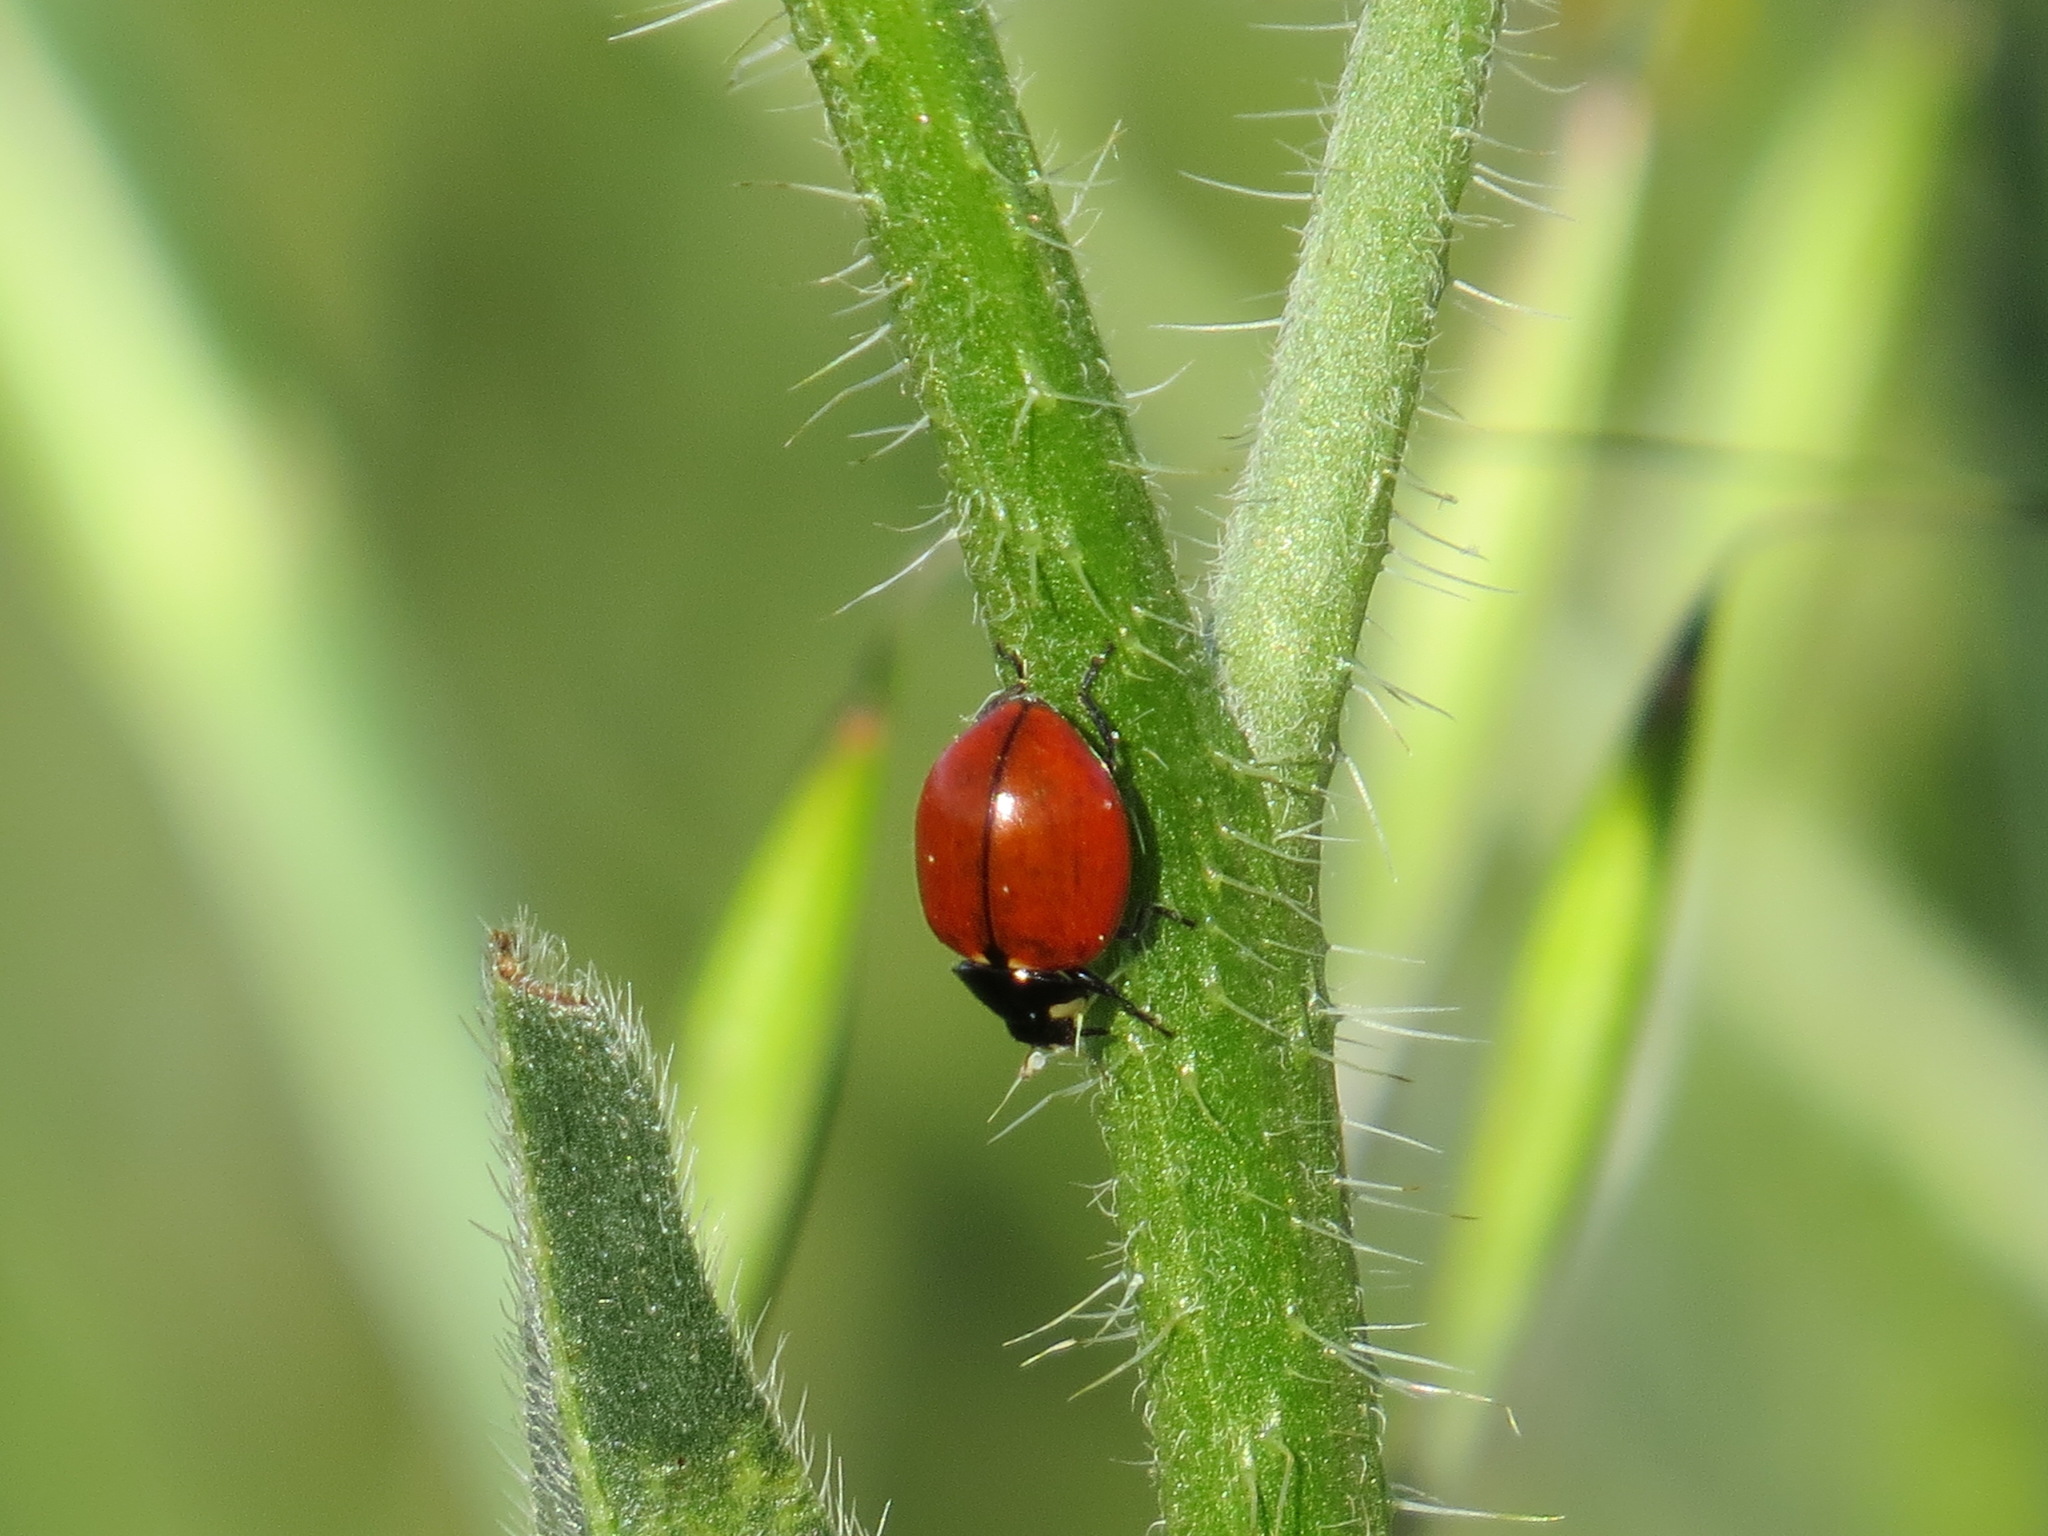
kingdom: Animalia
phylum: Arthropoda
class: Insecta
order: Coleoptera
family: Coccinellidae
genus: Coccinella
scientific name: Coccinella californica
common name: Lady beetle
